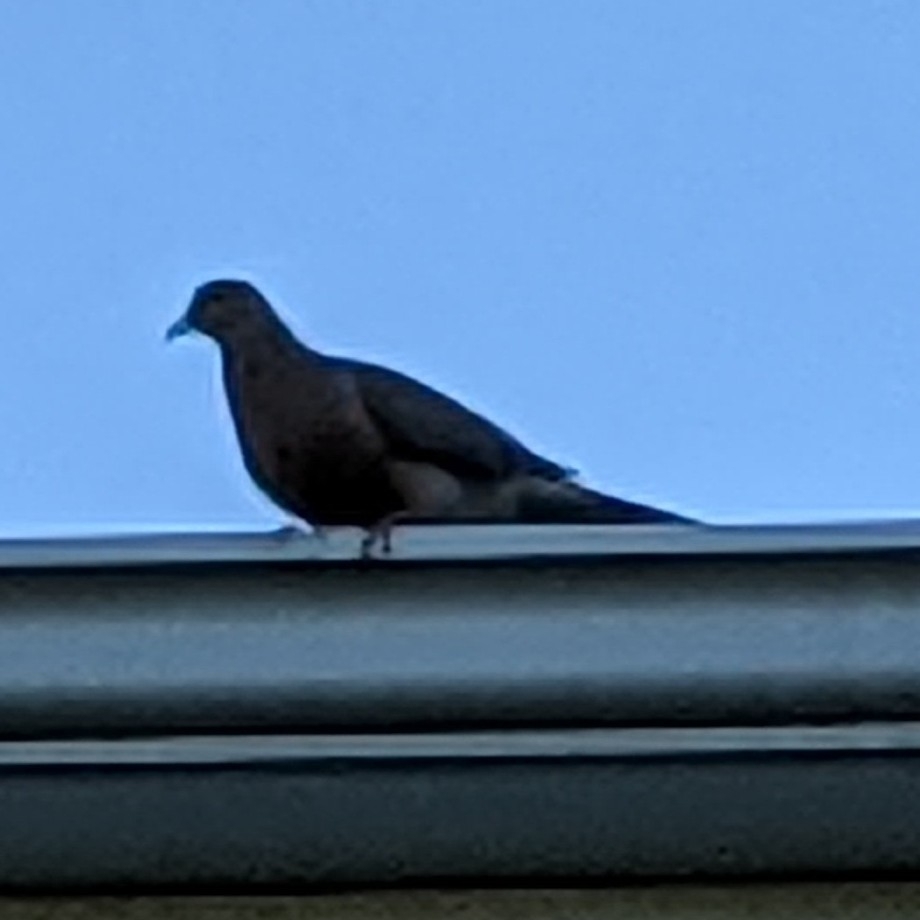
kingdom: Animalia
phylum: Chordata
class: Aves
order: Columbiformes
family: Columbidae
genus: Zenaida
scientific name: Zenaida macroura
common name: Mourning dove
